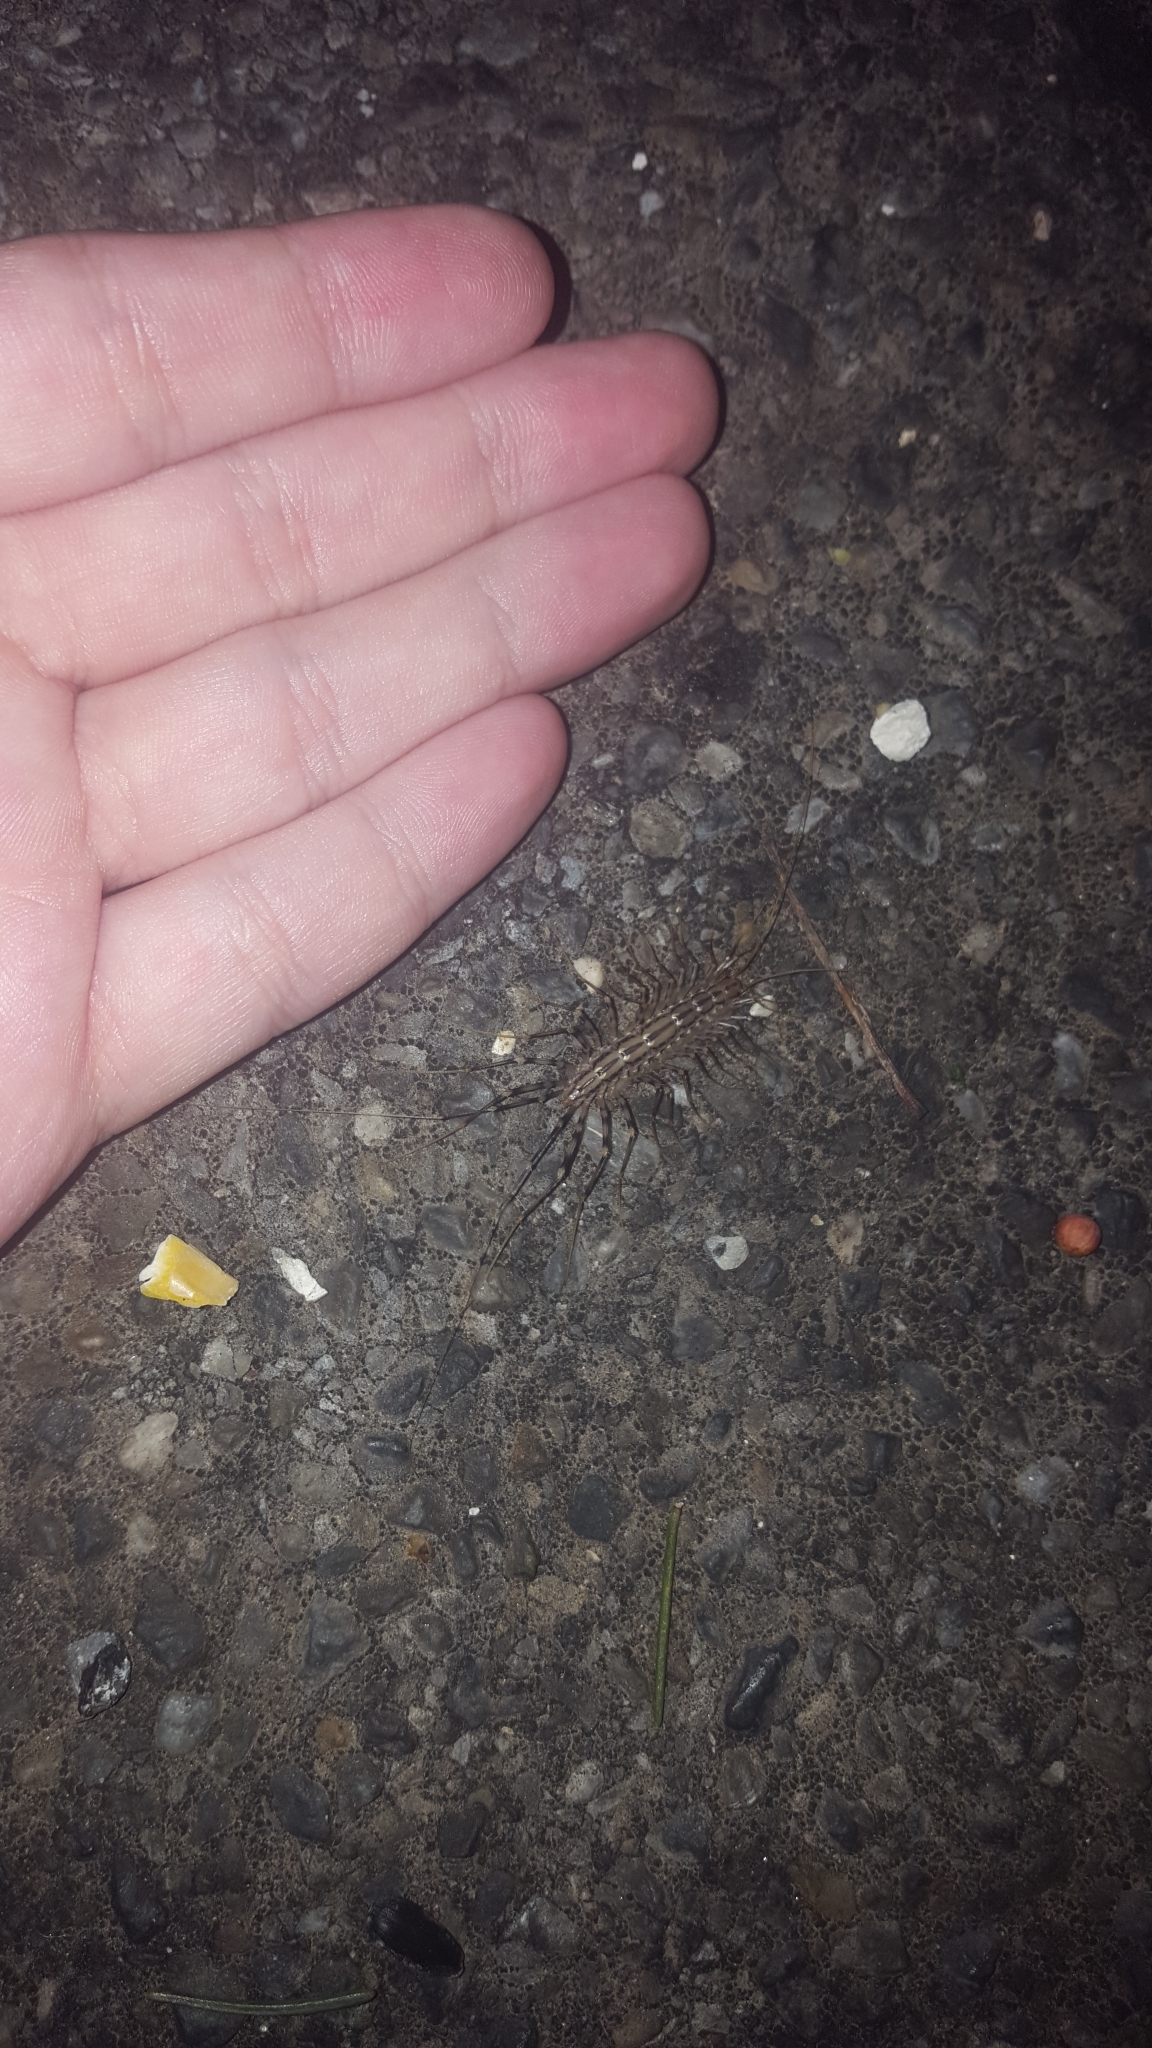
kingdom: Animalia
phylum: Arthropoda
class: Chilopoda
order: Scutigeromorpha
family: Scutigeridae
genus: Scutigera
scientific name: Scutigera coleoptrata
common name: House centipede
